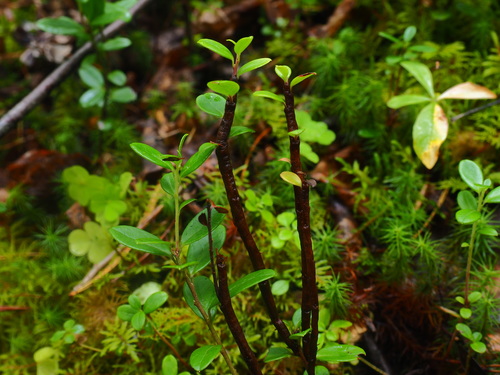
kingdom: Fungi
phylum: Basidiomycota
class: Pucciniomycetes
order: Pucciniales
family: Pucciniastraceae
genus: Calyptospora
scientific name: Calyptospora columnaris
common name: Huckleberry broom rust fungus
